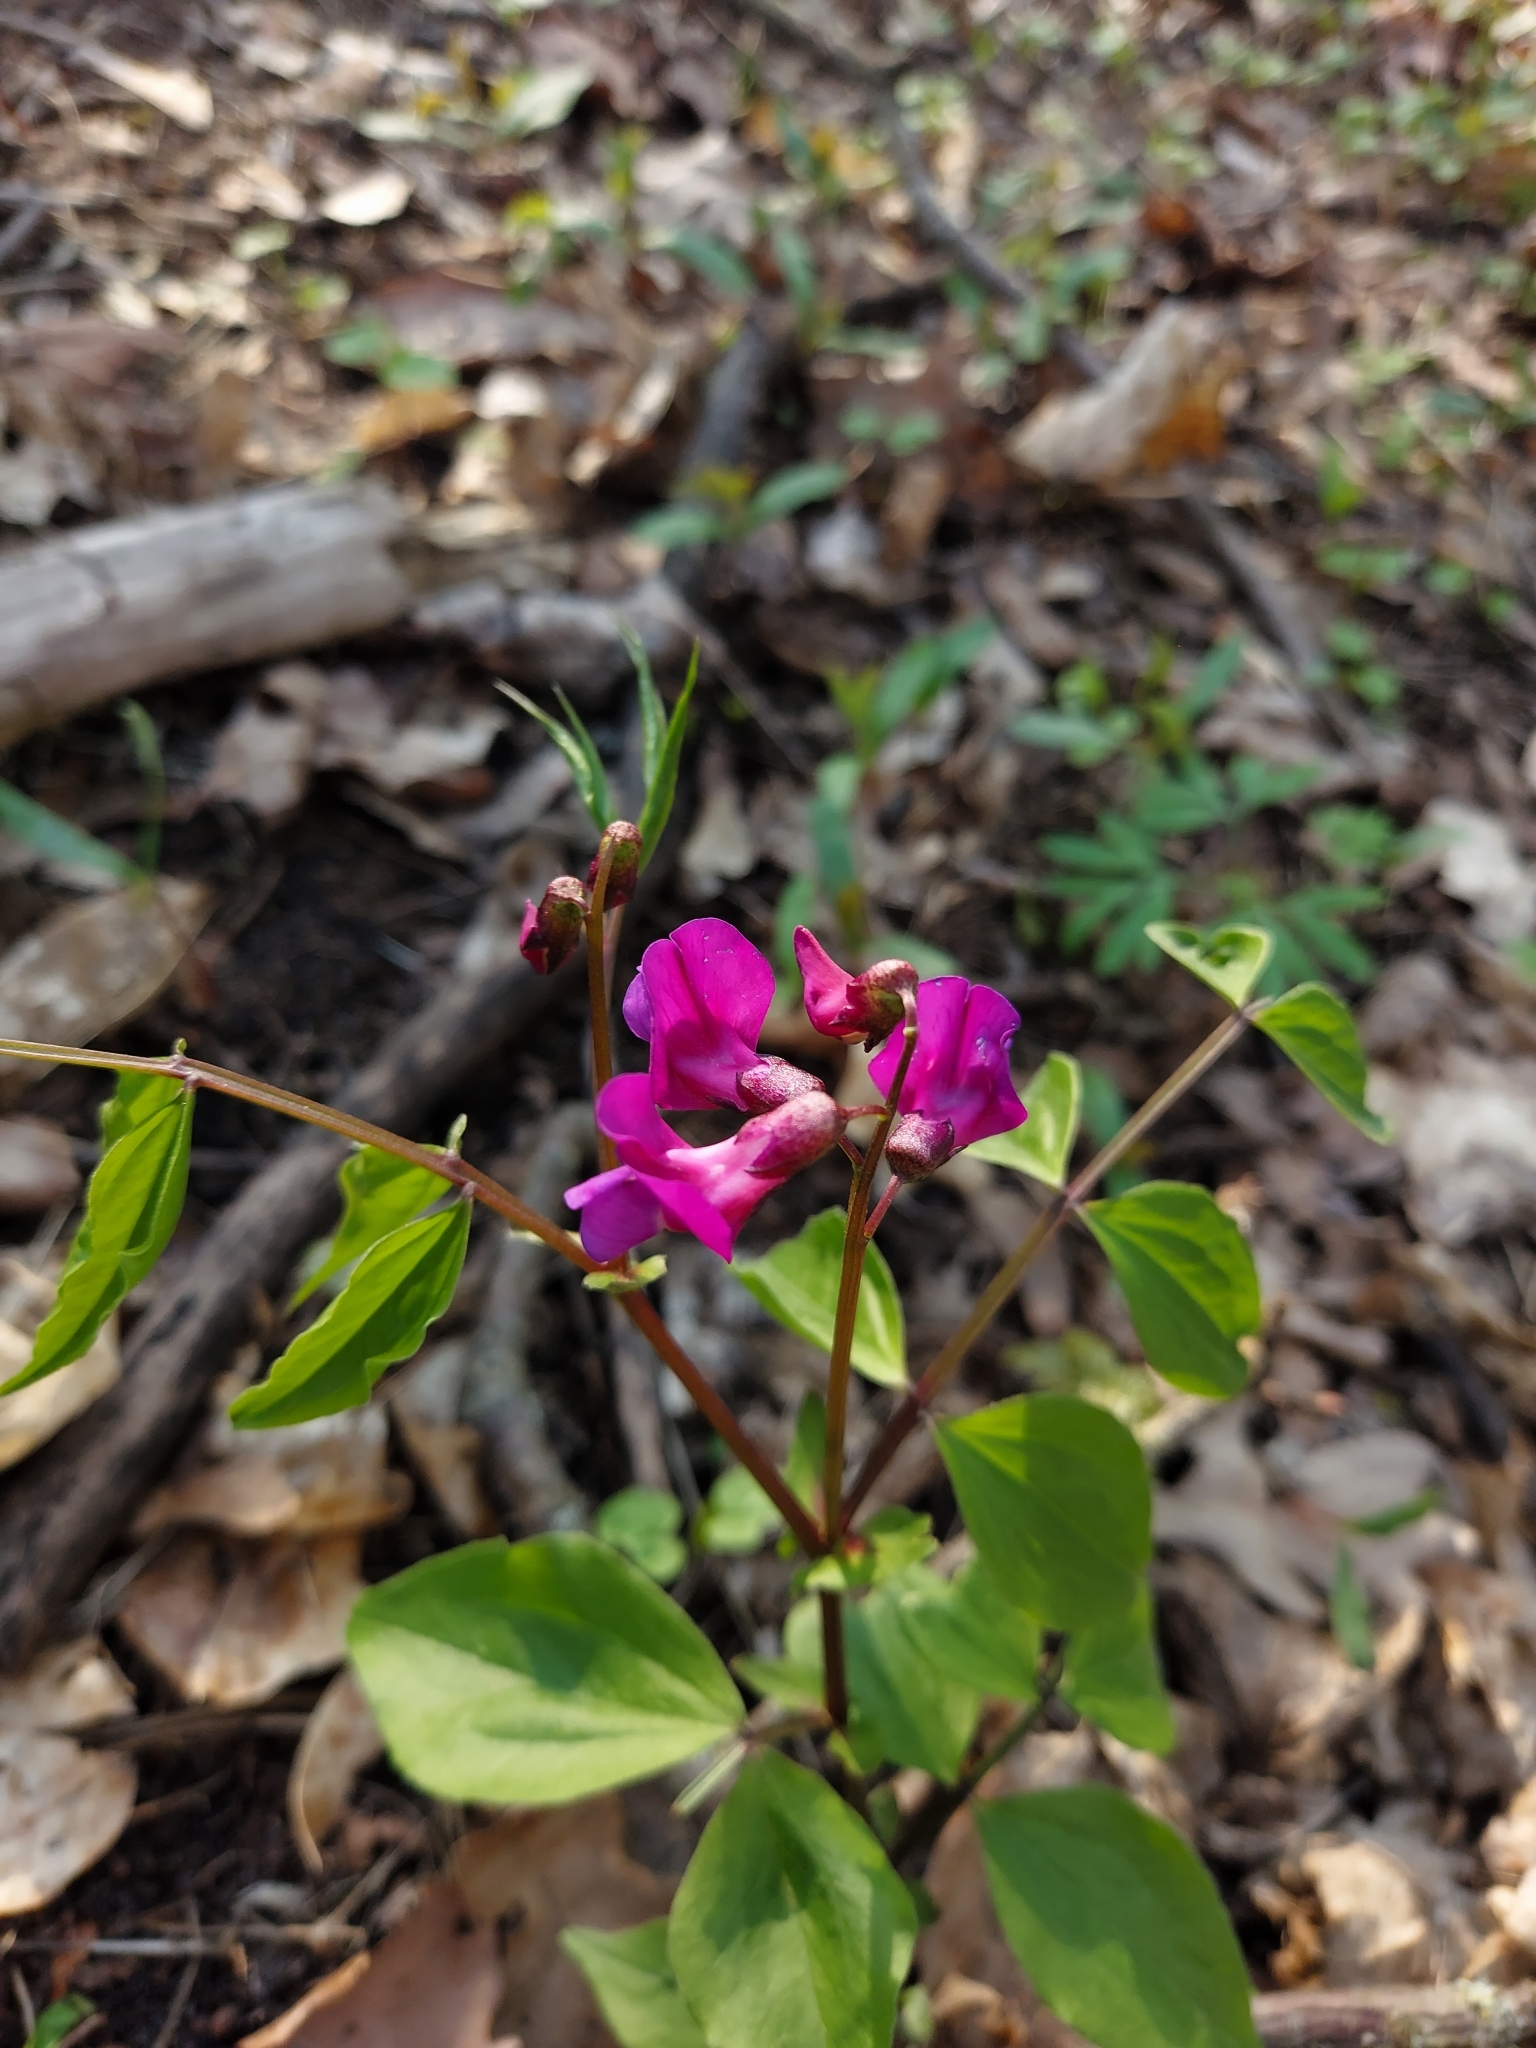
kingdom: Plantae
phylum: Tracheophyta
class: Magnoliopsida
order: Fabales
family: Fabaceae
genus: Lathyrus
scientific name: Lathyrus vernus
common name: Spring pea
